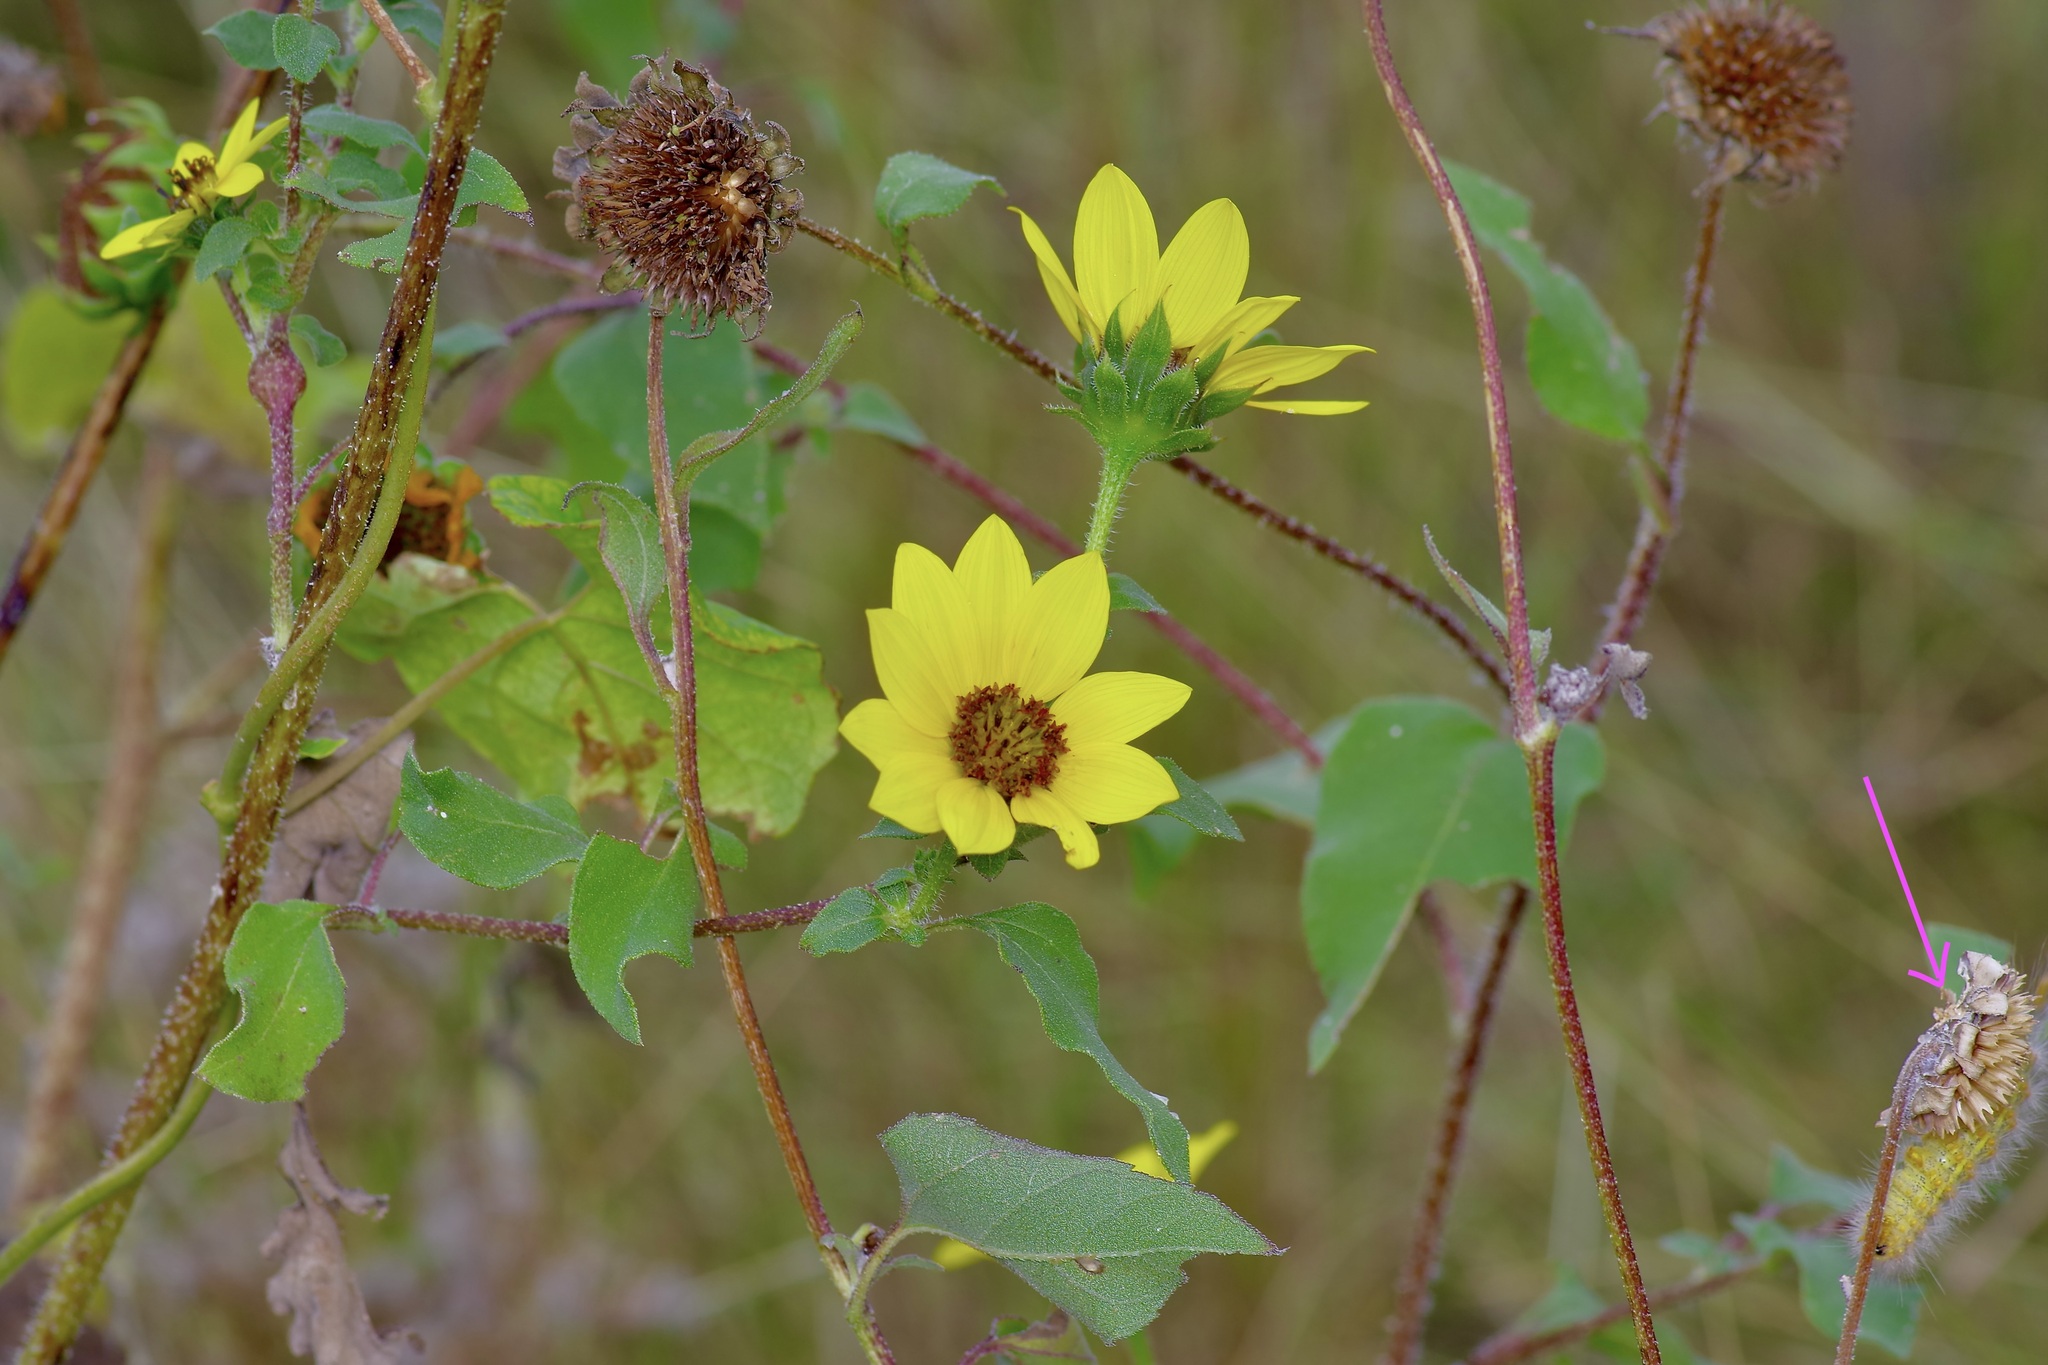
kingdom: Animalia
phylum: Arthropoda
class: Insecta
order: Lepidoptera
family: Erebidae
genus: Estigmene
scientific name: Estigmene acrea
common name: Salt marsh moth
